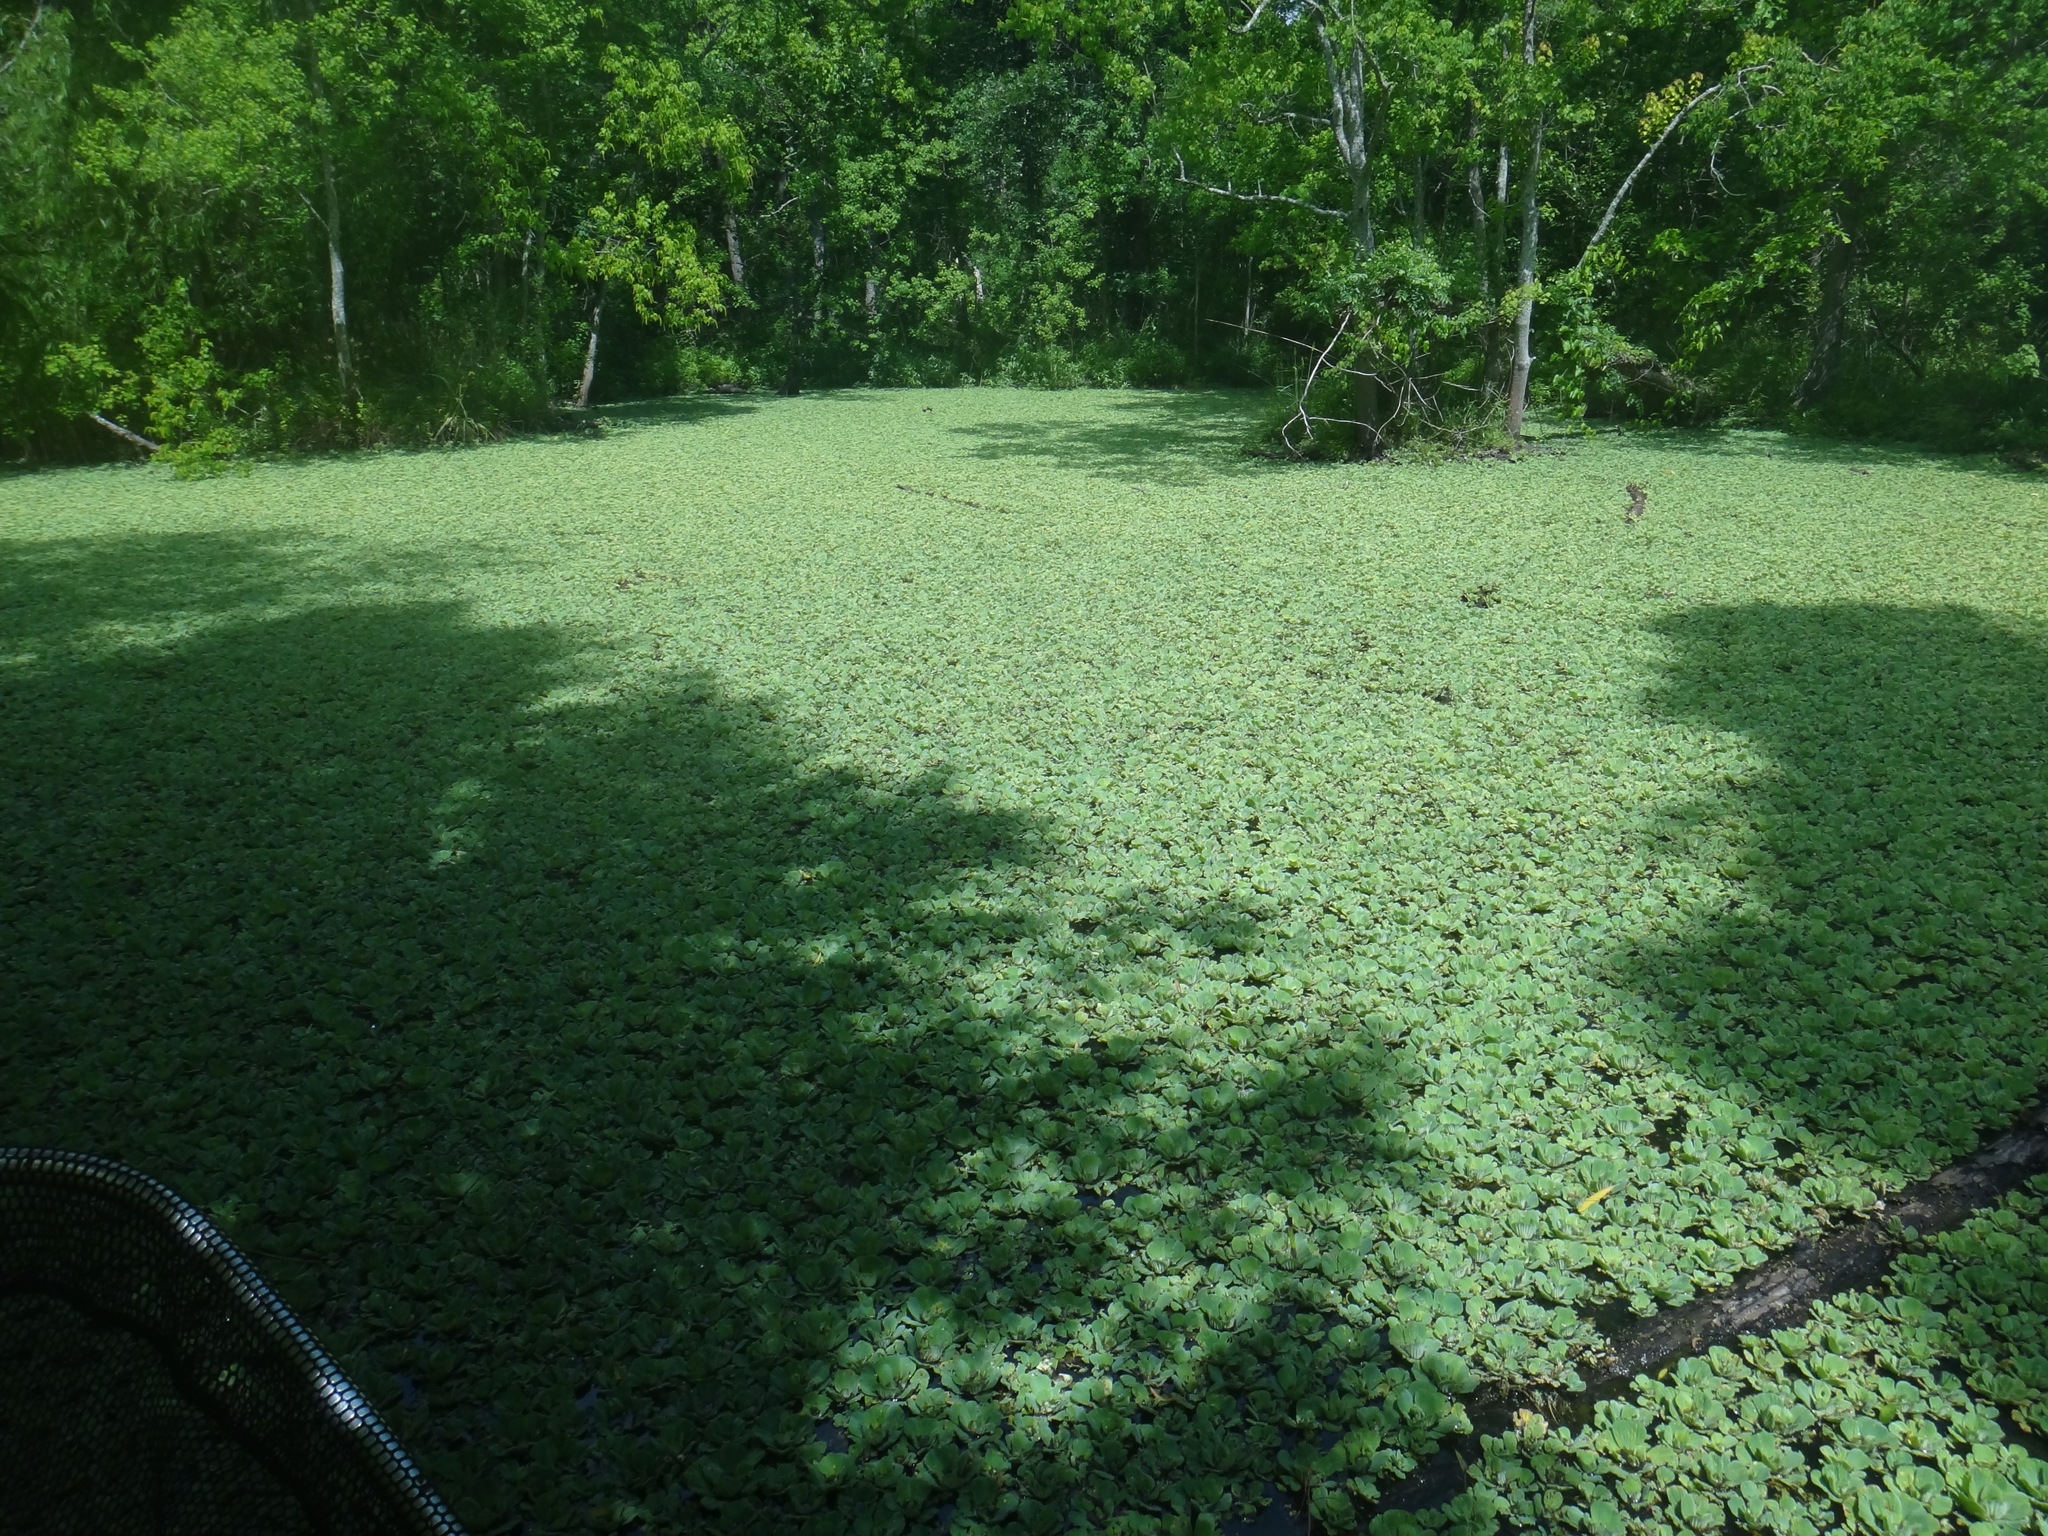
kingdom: Plantae
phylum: Tracheophyta
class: Liliopsida
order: Alismatales
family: Araceae
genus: Pistia
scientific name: Pistia stratiotes
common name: Water lettuce
